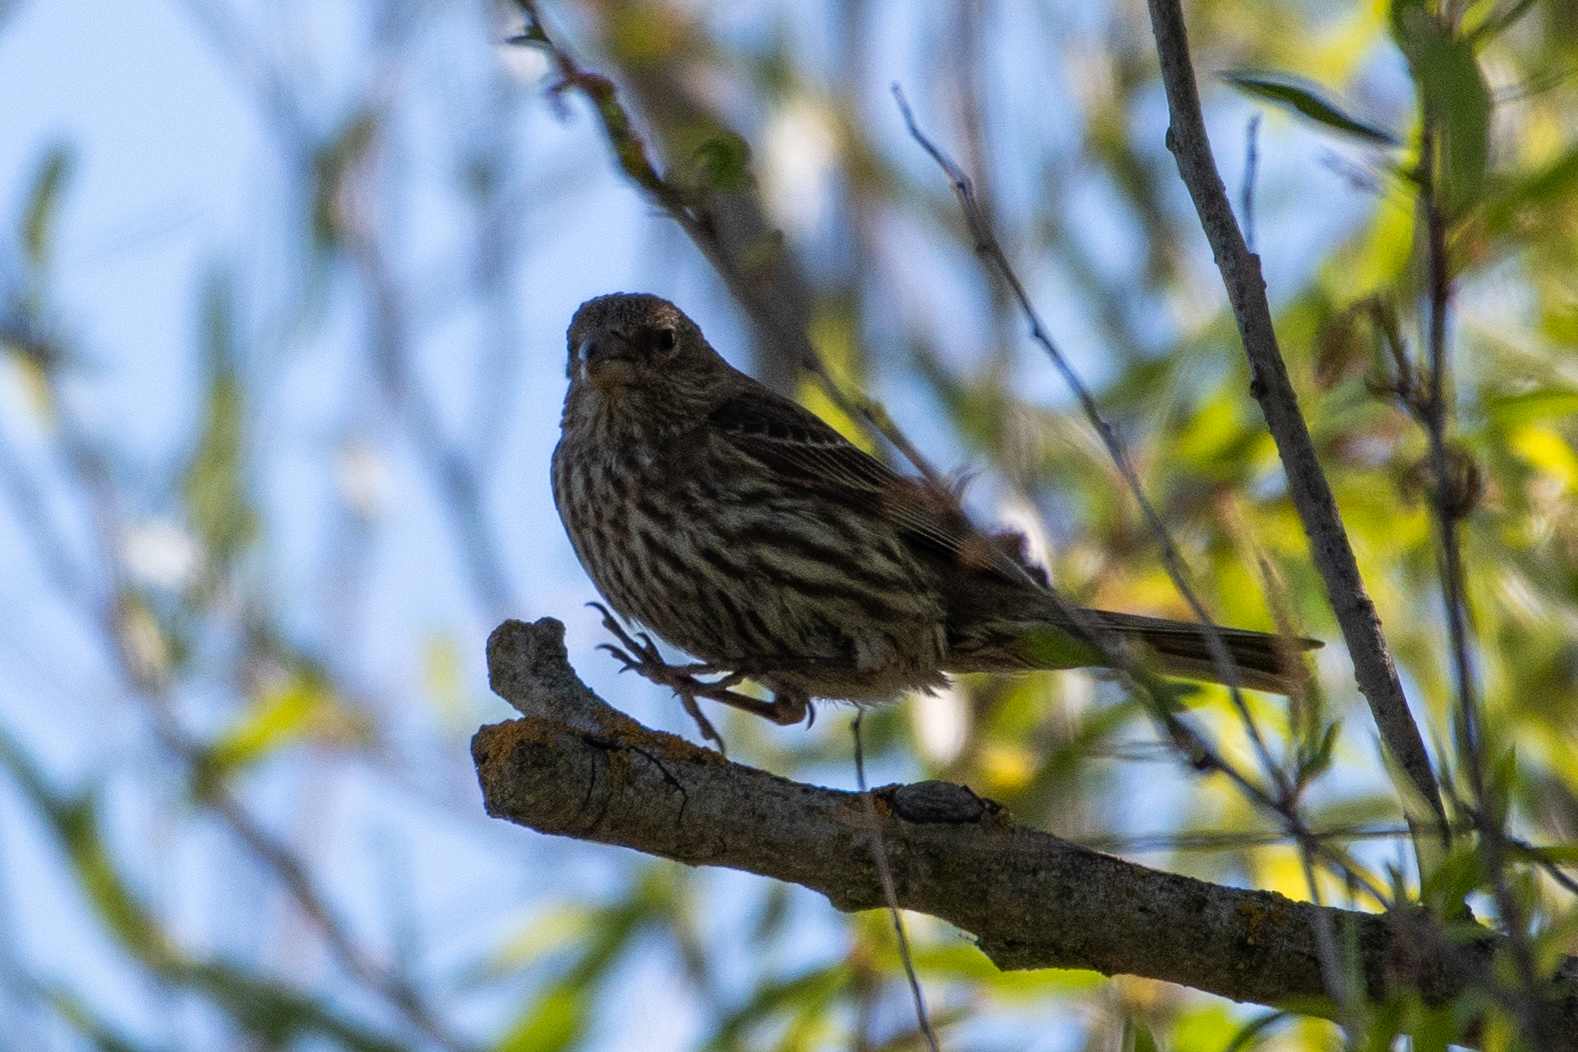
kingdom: Animalia
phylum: Chordata
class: Aves
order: Passeriformes
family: Fringillidae
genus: Haemorhous
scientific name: Haemorhous mexicanus
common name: House finch
